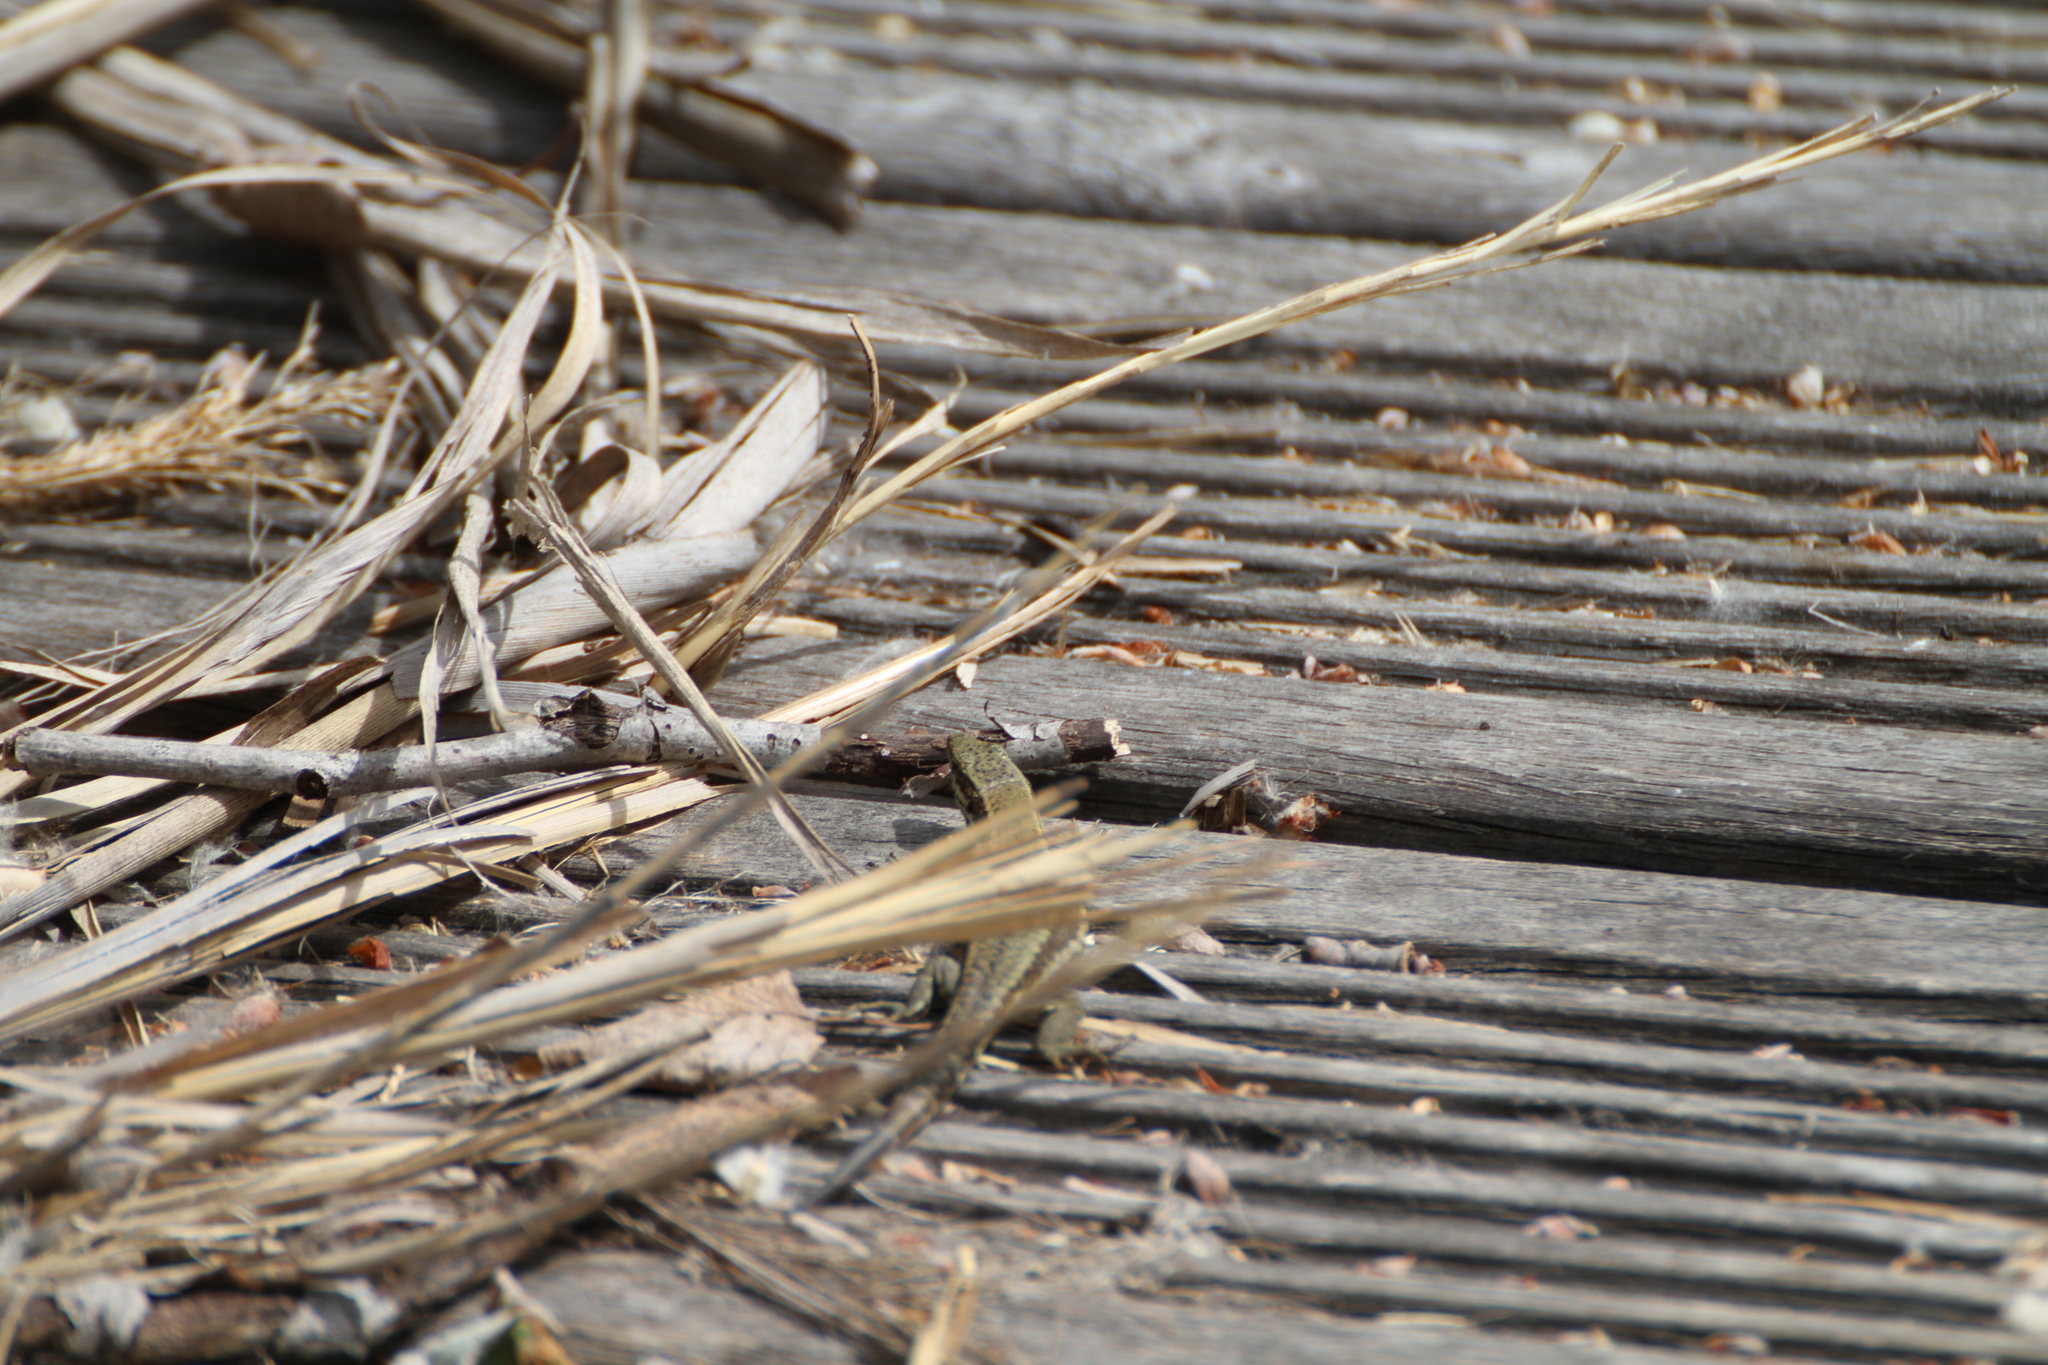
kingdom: Animalia
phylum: Chordata
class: Squamata
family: Lacertidae
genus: Podarcis
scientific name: Podarcis muralis
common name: Common wall lizard
